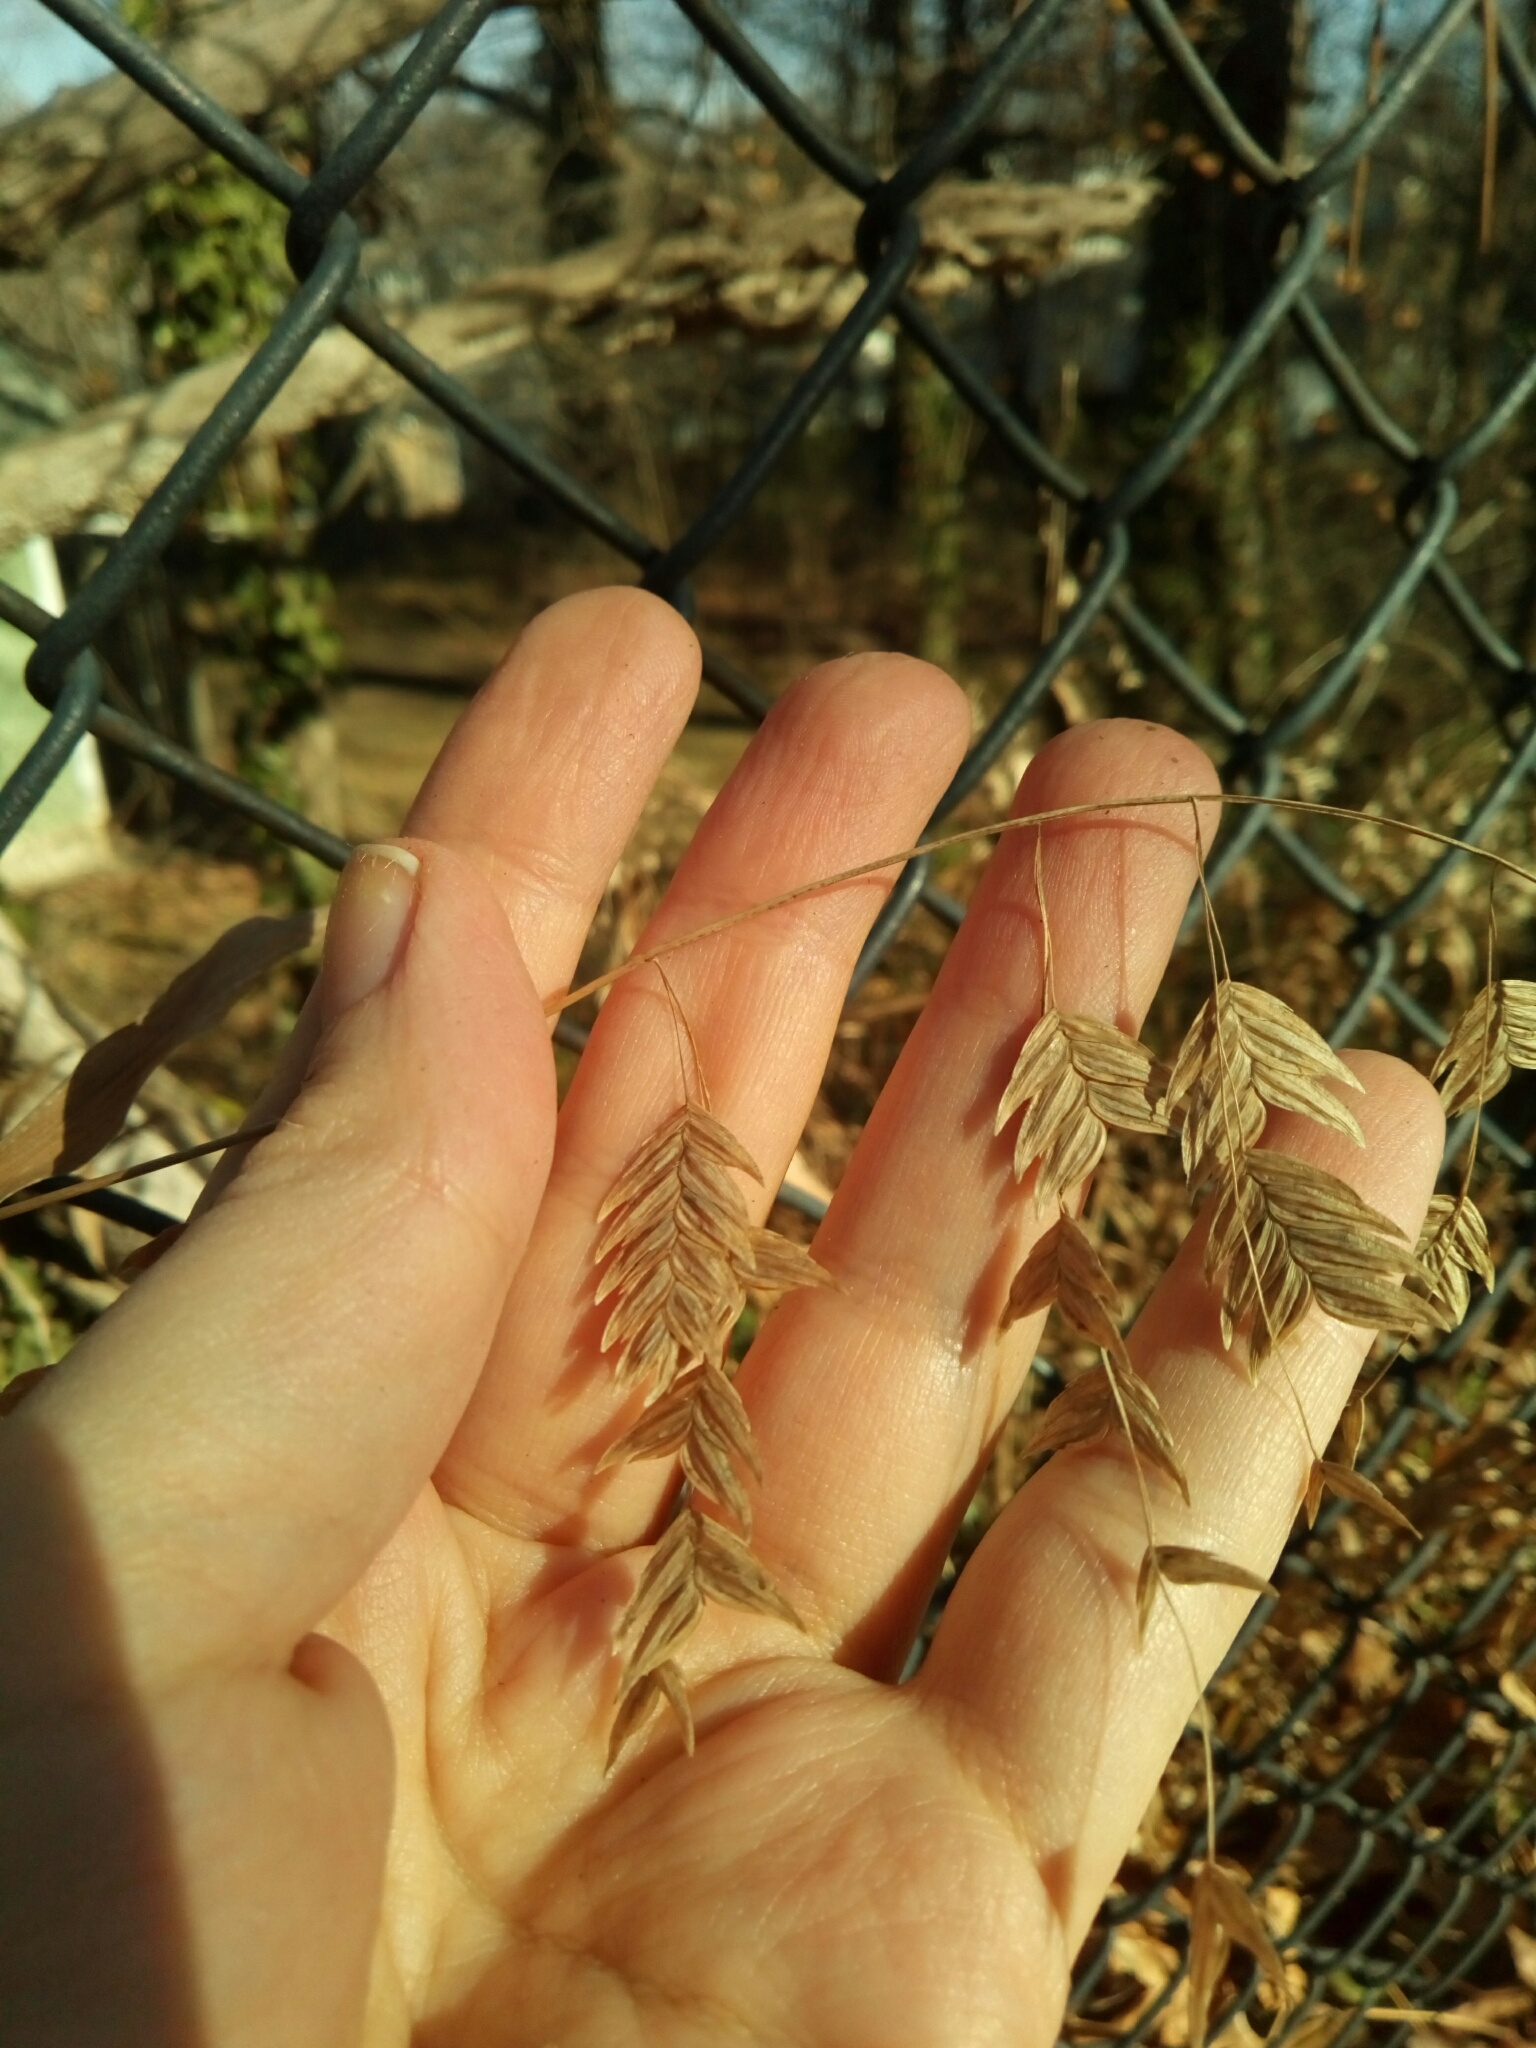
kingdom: Plantae
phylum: Tracheophyta
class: Liliopsida
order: Poales
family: Poaceae
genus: Chasmanthium
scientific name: Chasmanthium latifolium
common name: Broad-leaved chasmanthium
